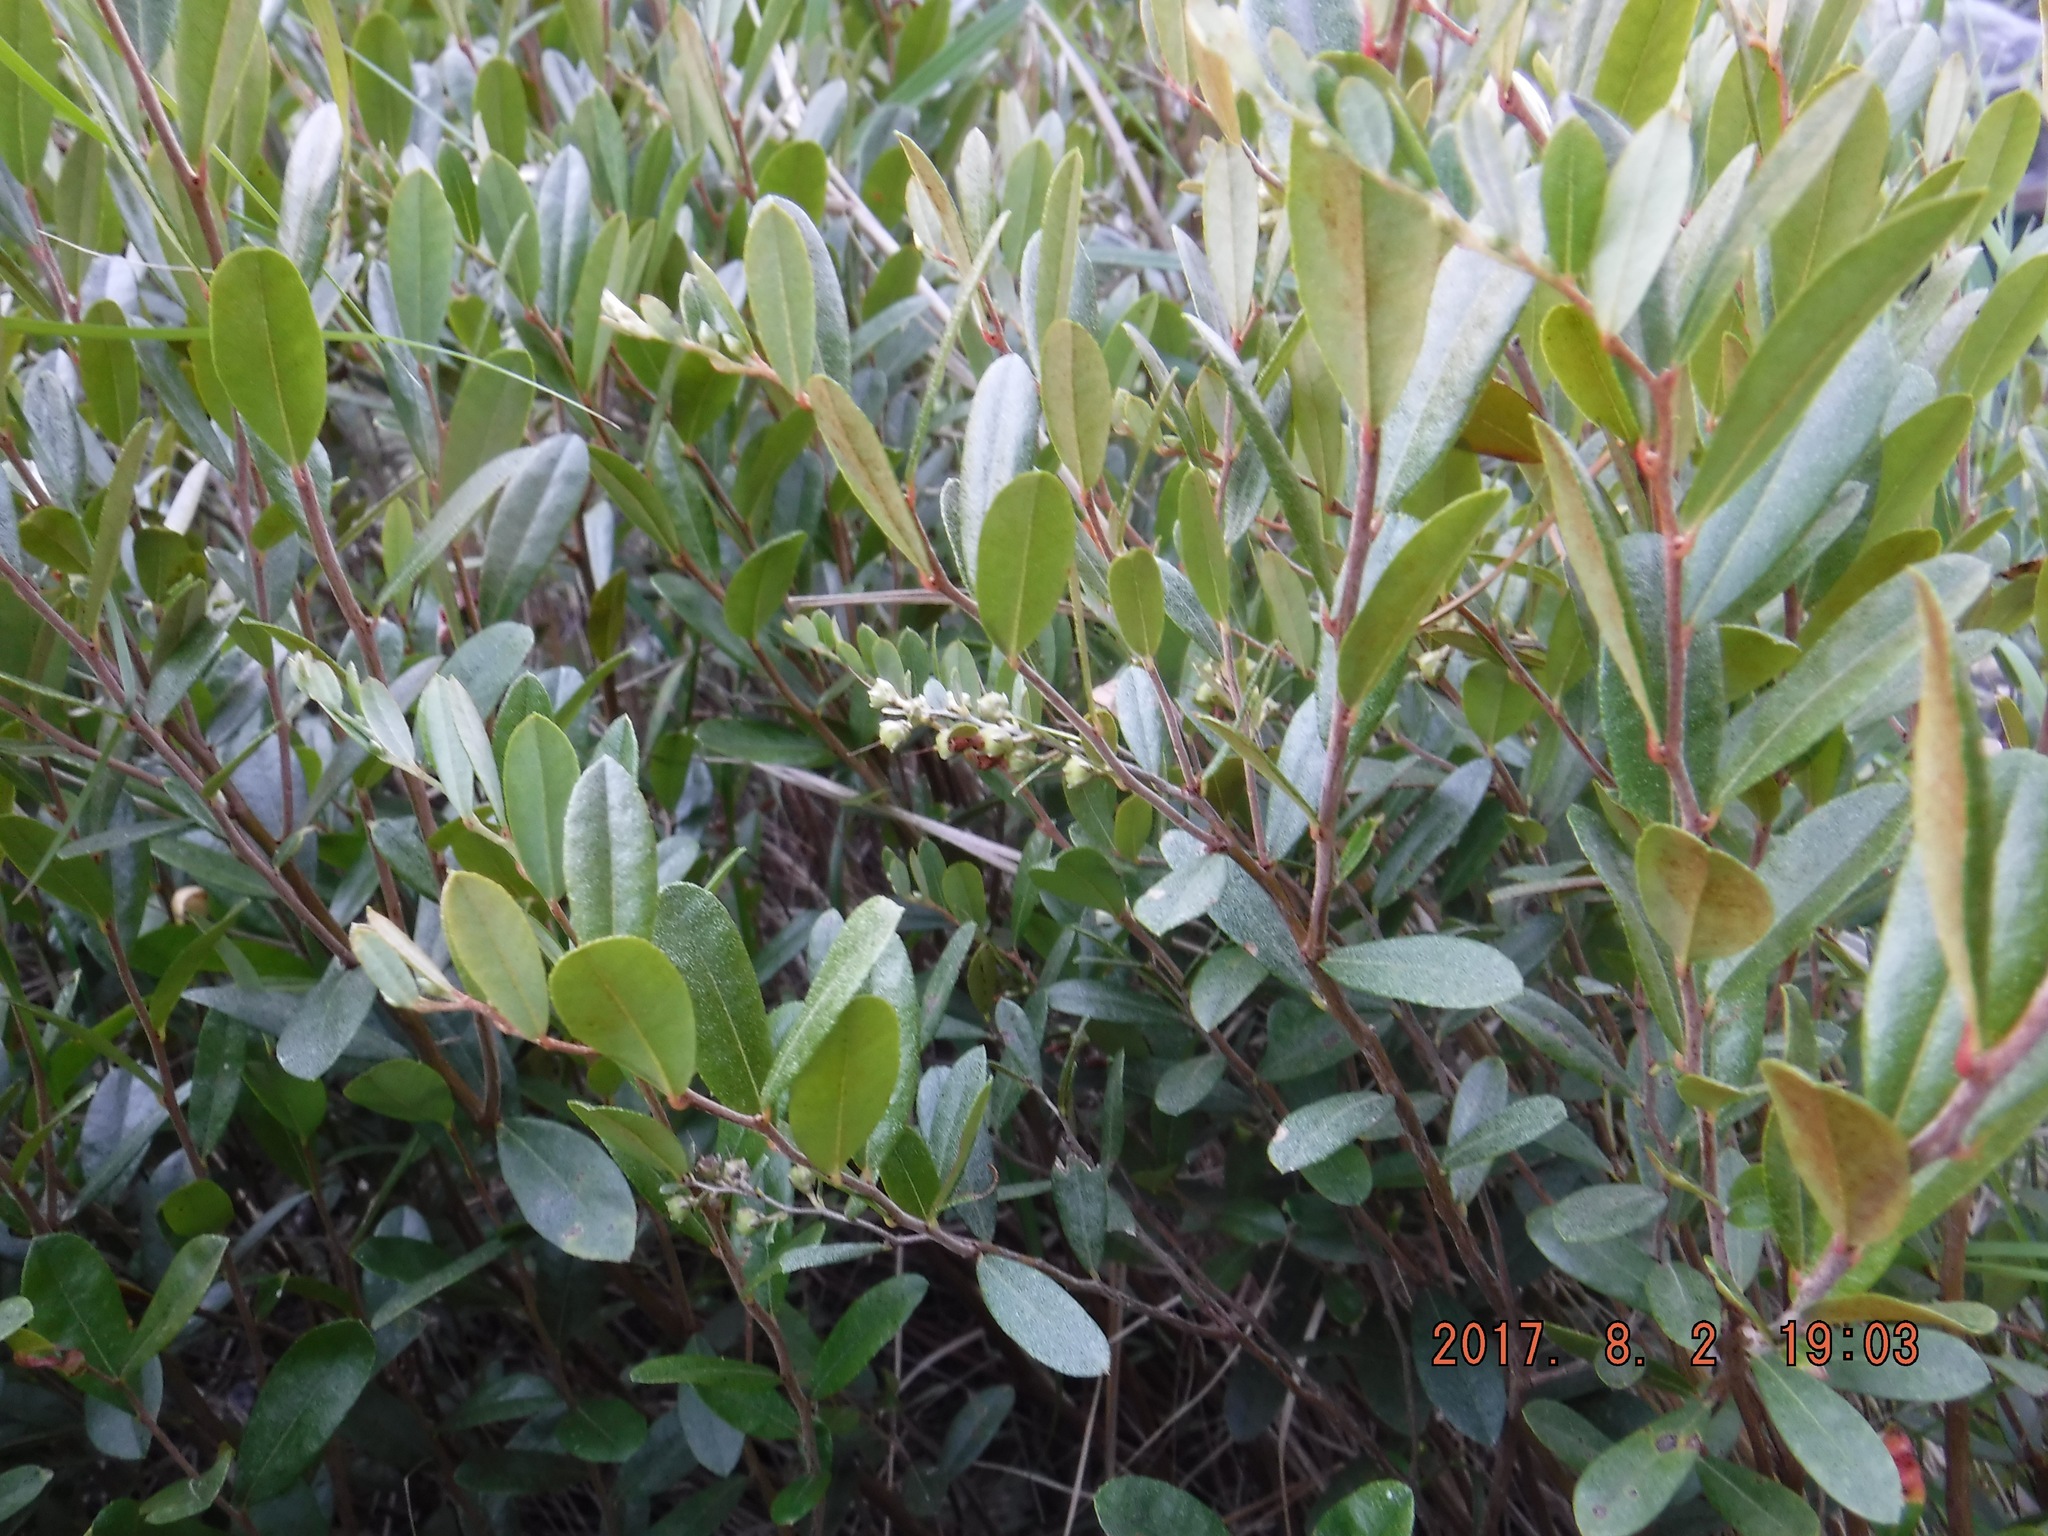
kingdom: Plantae
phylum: Tracheophyta
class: Magnoliopsida
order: Ericales
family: Ericaceae
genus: Chamaedaphne
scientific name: Chamaedaphne calyculata
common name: Leatherleaf
